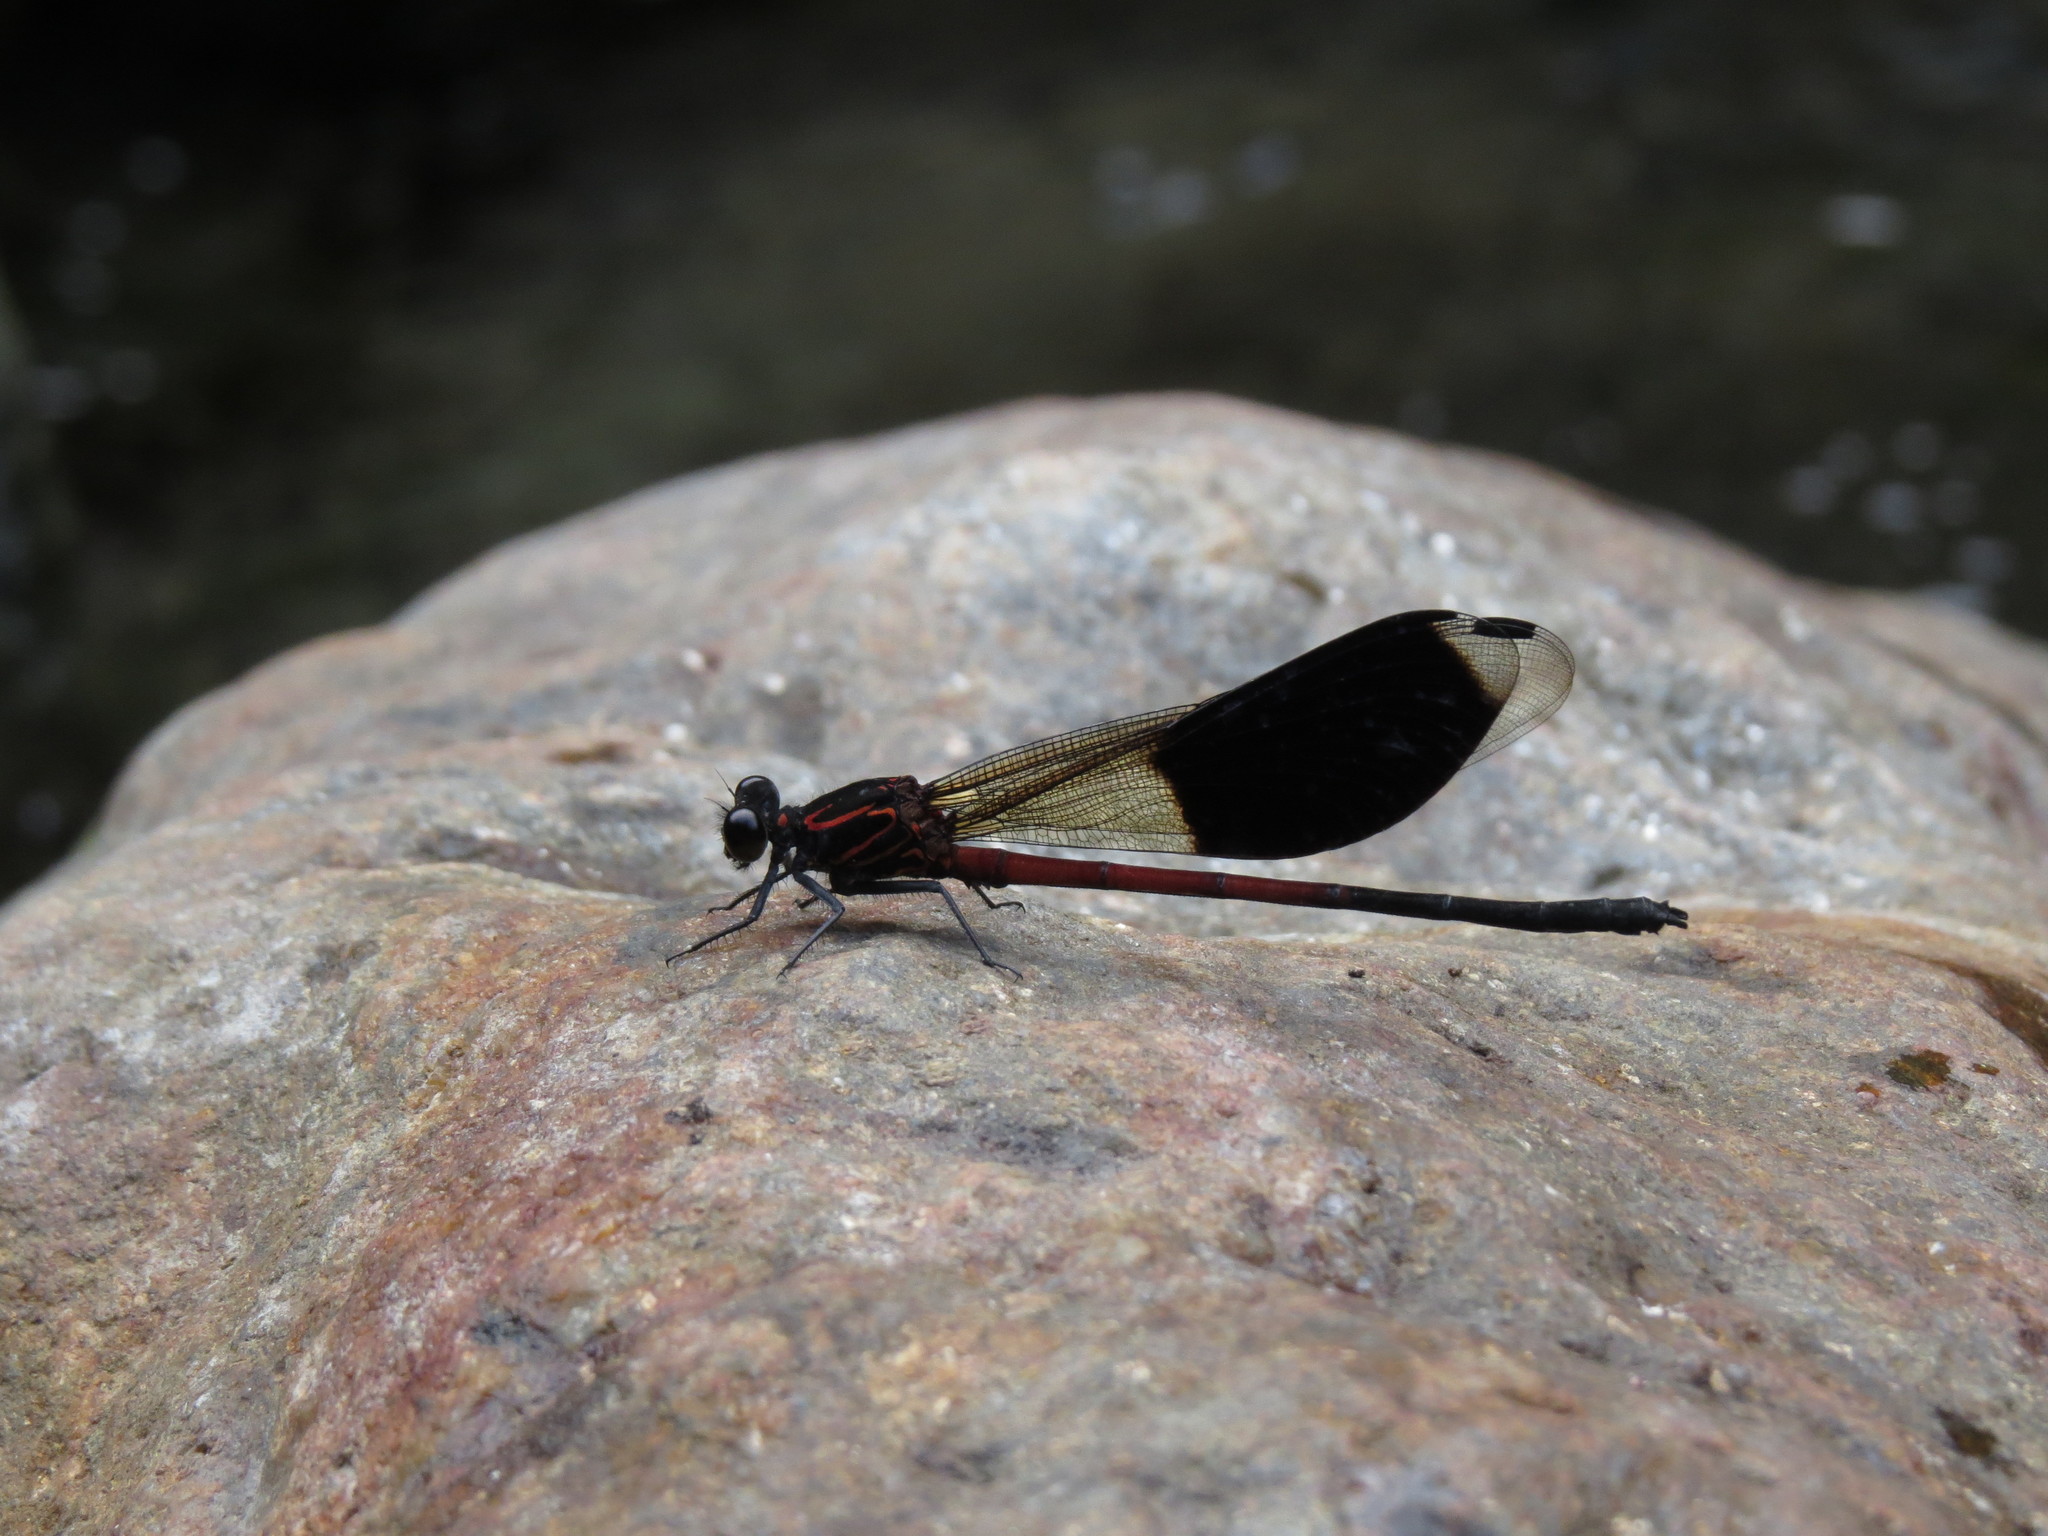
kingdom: Animalia
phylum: Arthropoda
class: Insecta
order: Odonata
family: Euphaeidae
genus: Euphaea
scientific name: Euphaea formosa
